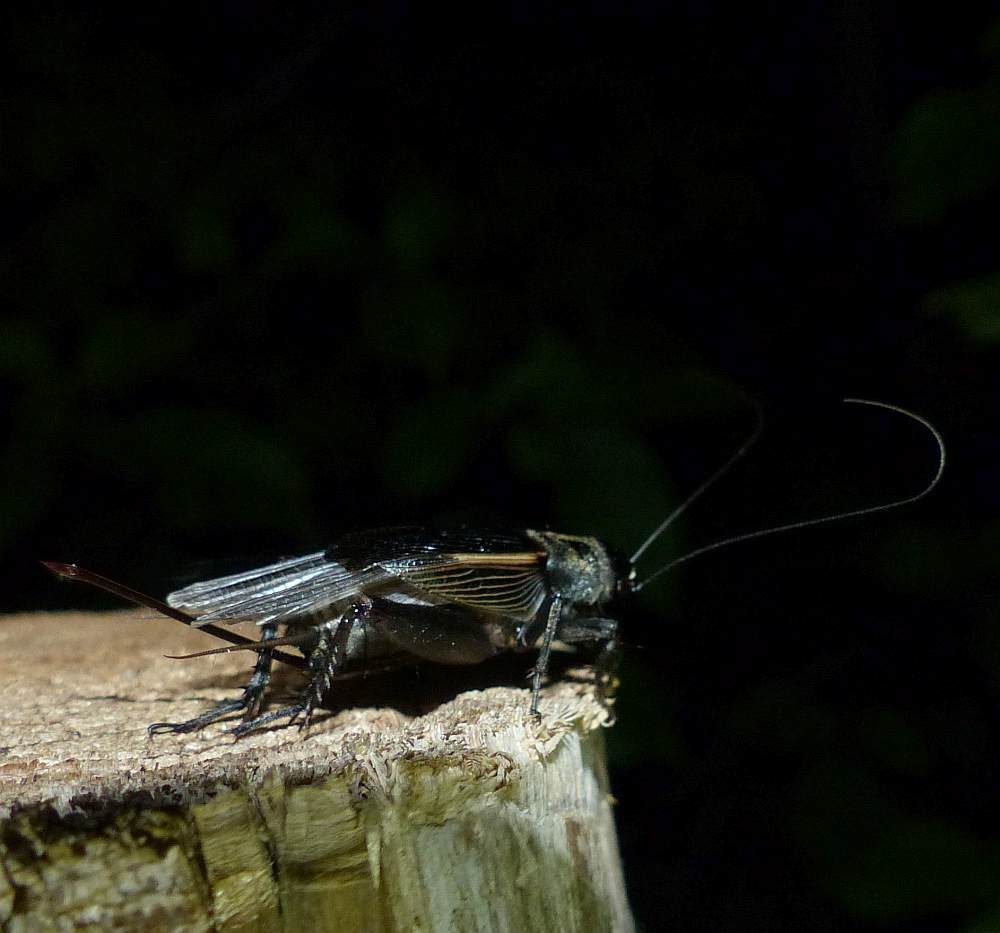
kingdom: Animalia
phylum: Arthropoda
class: Insecta
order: Orthoptera
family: Gryllidae
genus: Gryllus
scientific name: Gryllus pennsylvanicus
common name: Fall field cricket
